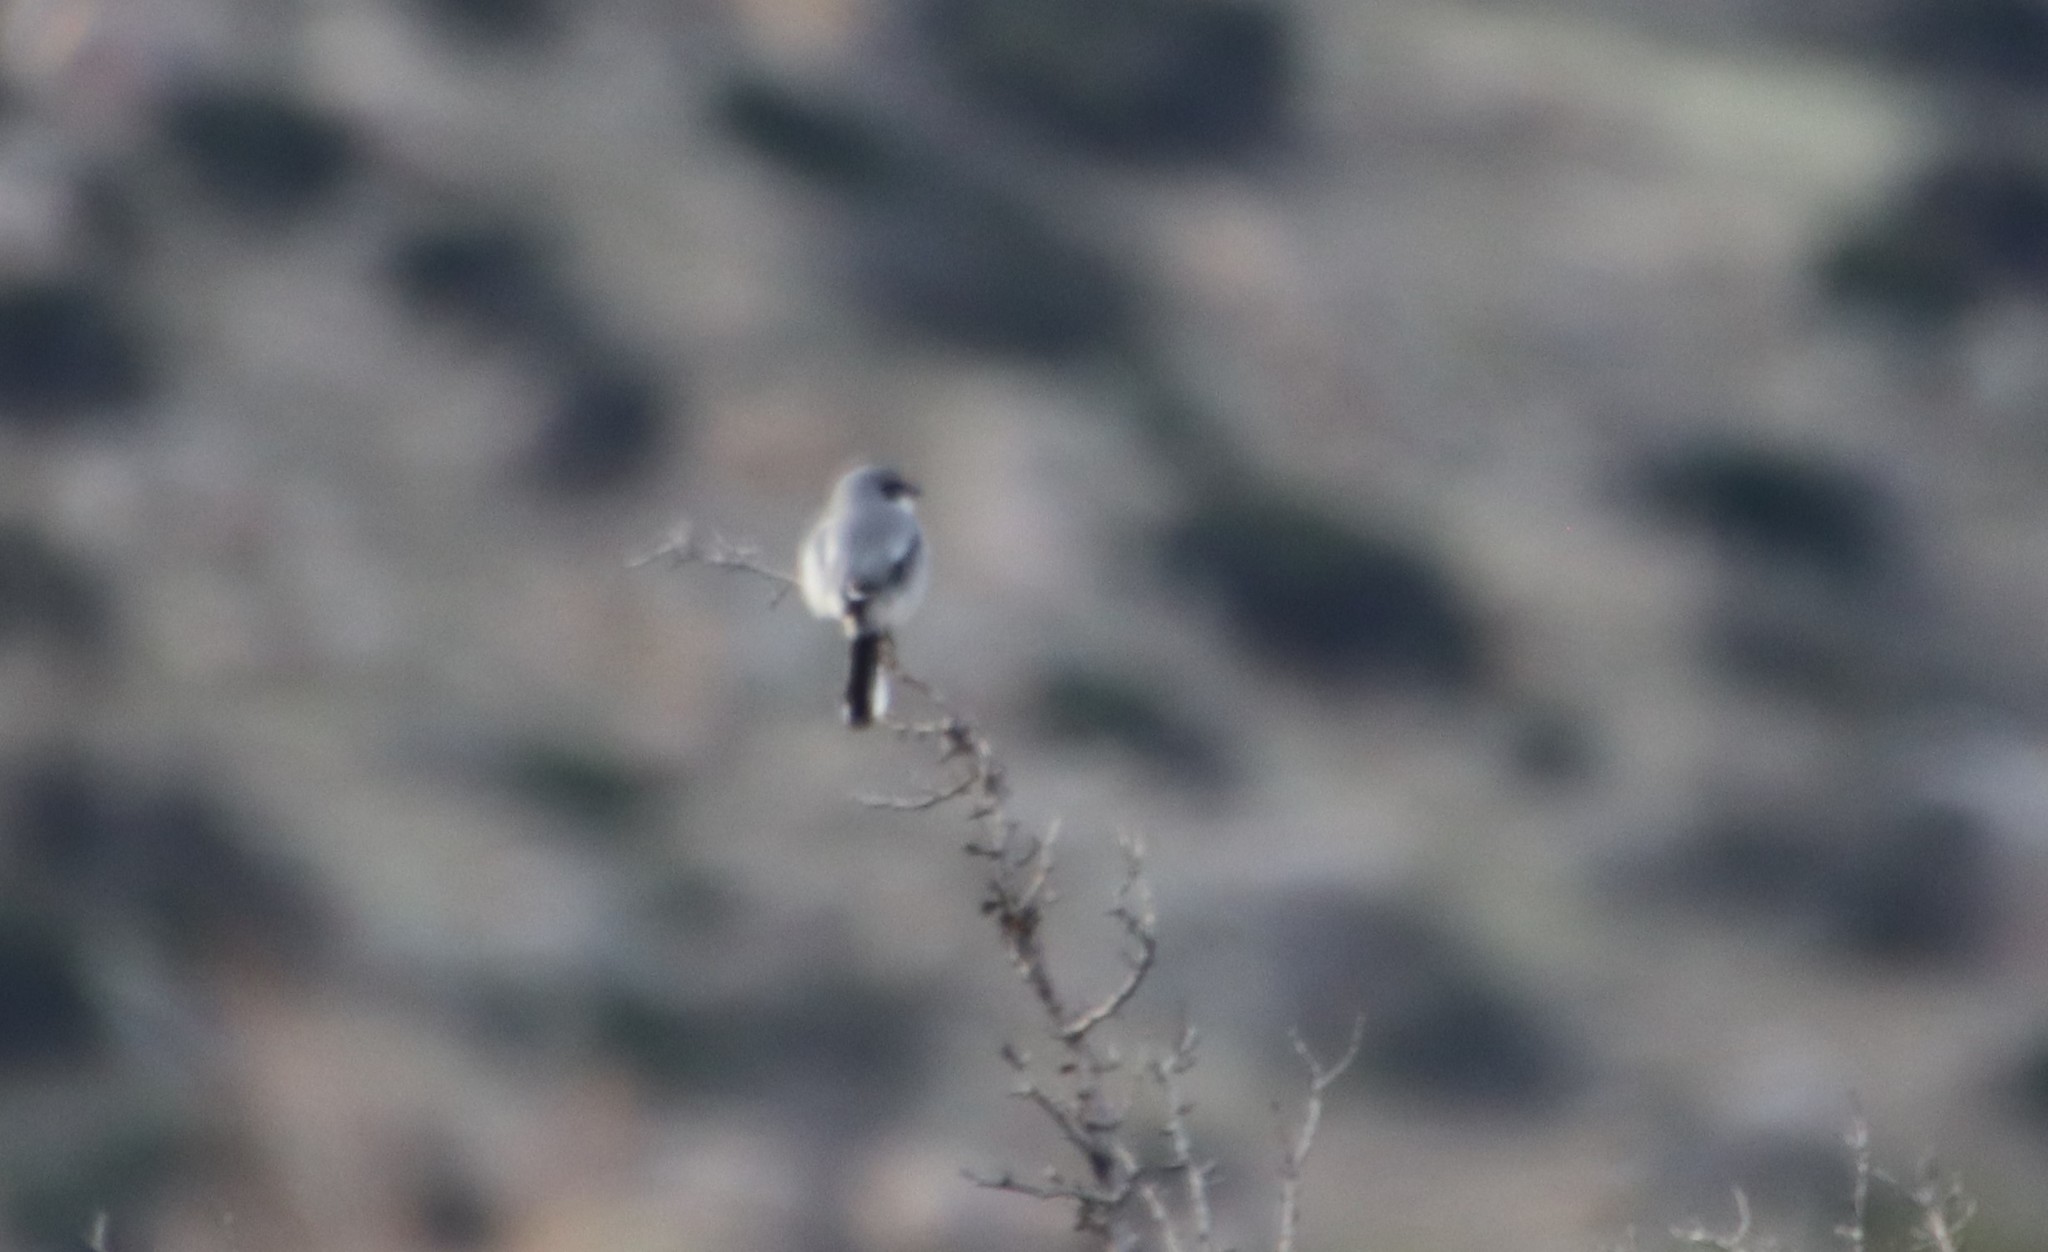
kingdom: Animalia
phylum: Chordata
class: Aves
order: Passeriformes
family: Laniidae
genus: Lanius
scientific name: Lanius ludovicianus
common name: Loggerhead shrike
